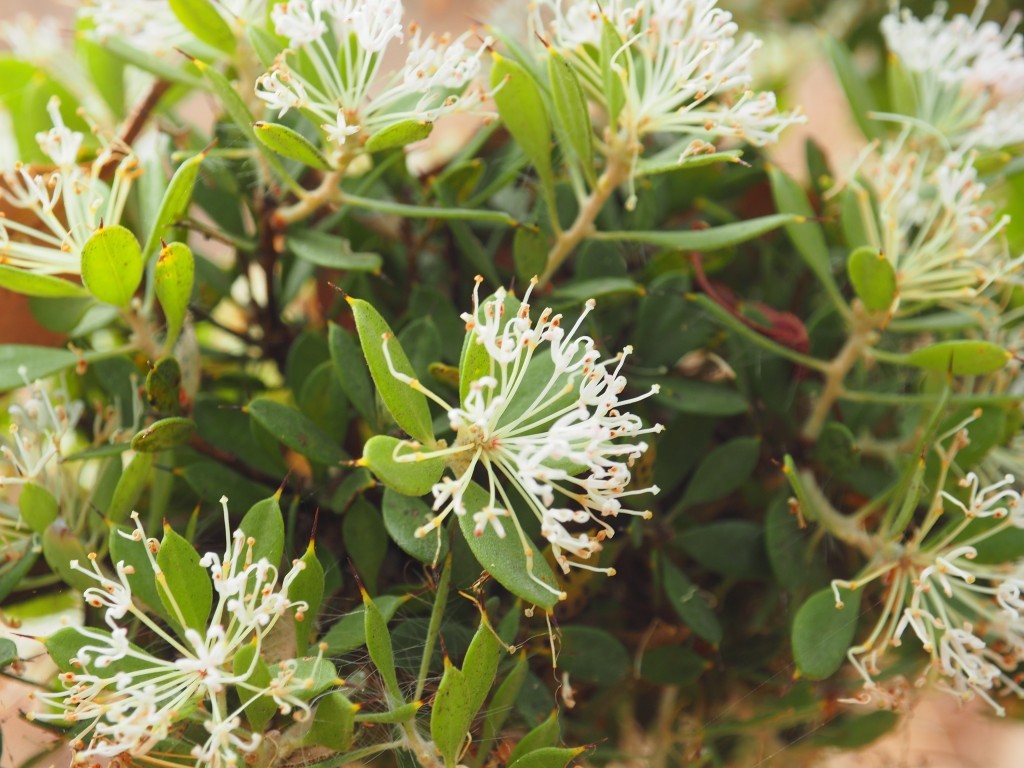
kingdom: Plantae
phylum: Tracheophyta
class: Magnoliopsida
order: Proteales
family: Proteaceae
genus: Hakea
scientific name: Hakea ruscifolia
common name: Candle hakea
